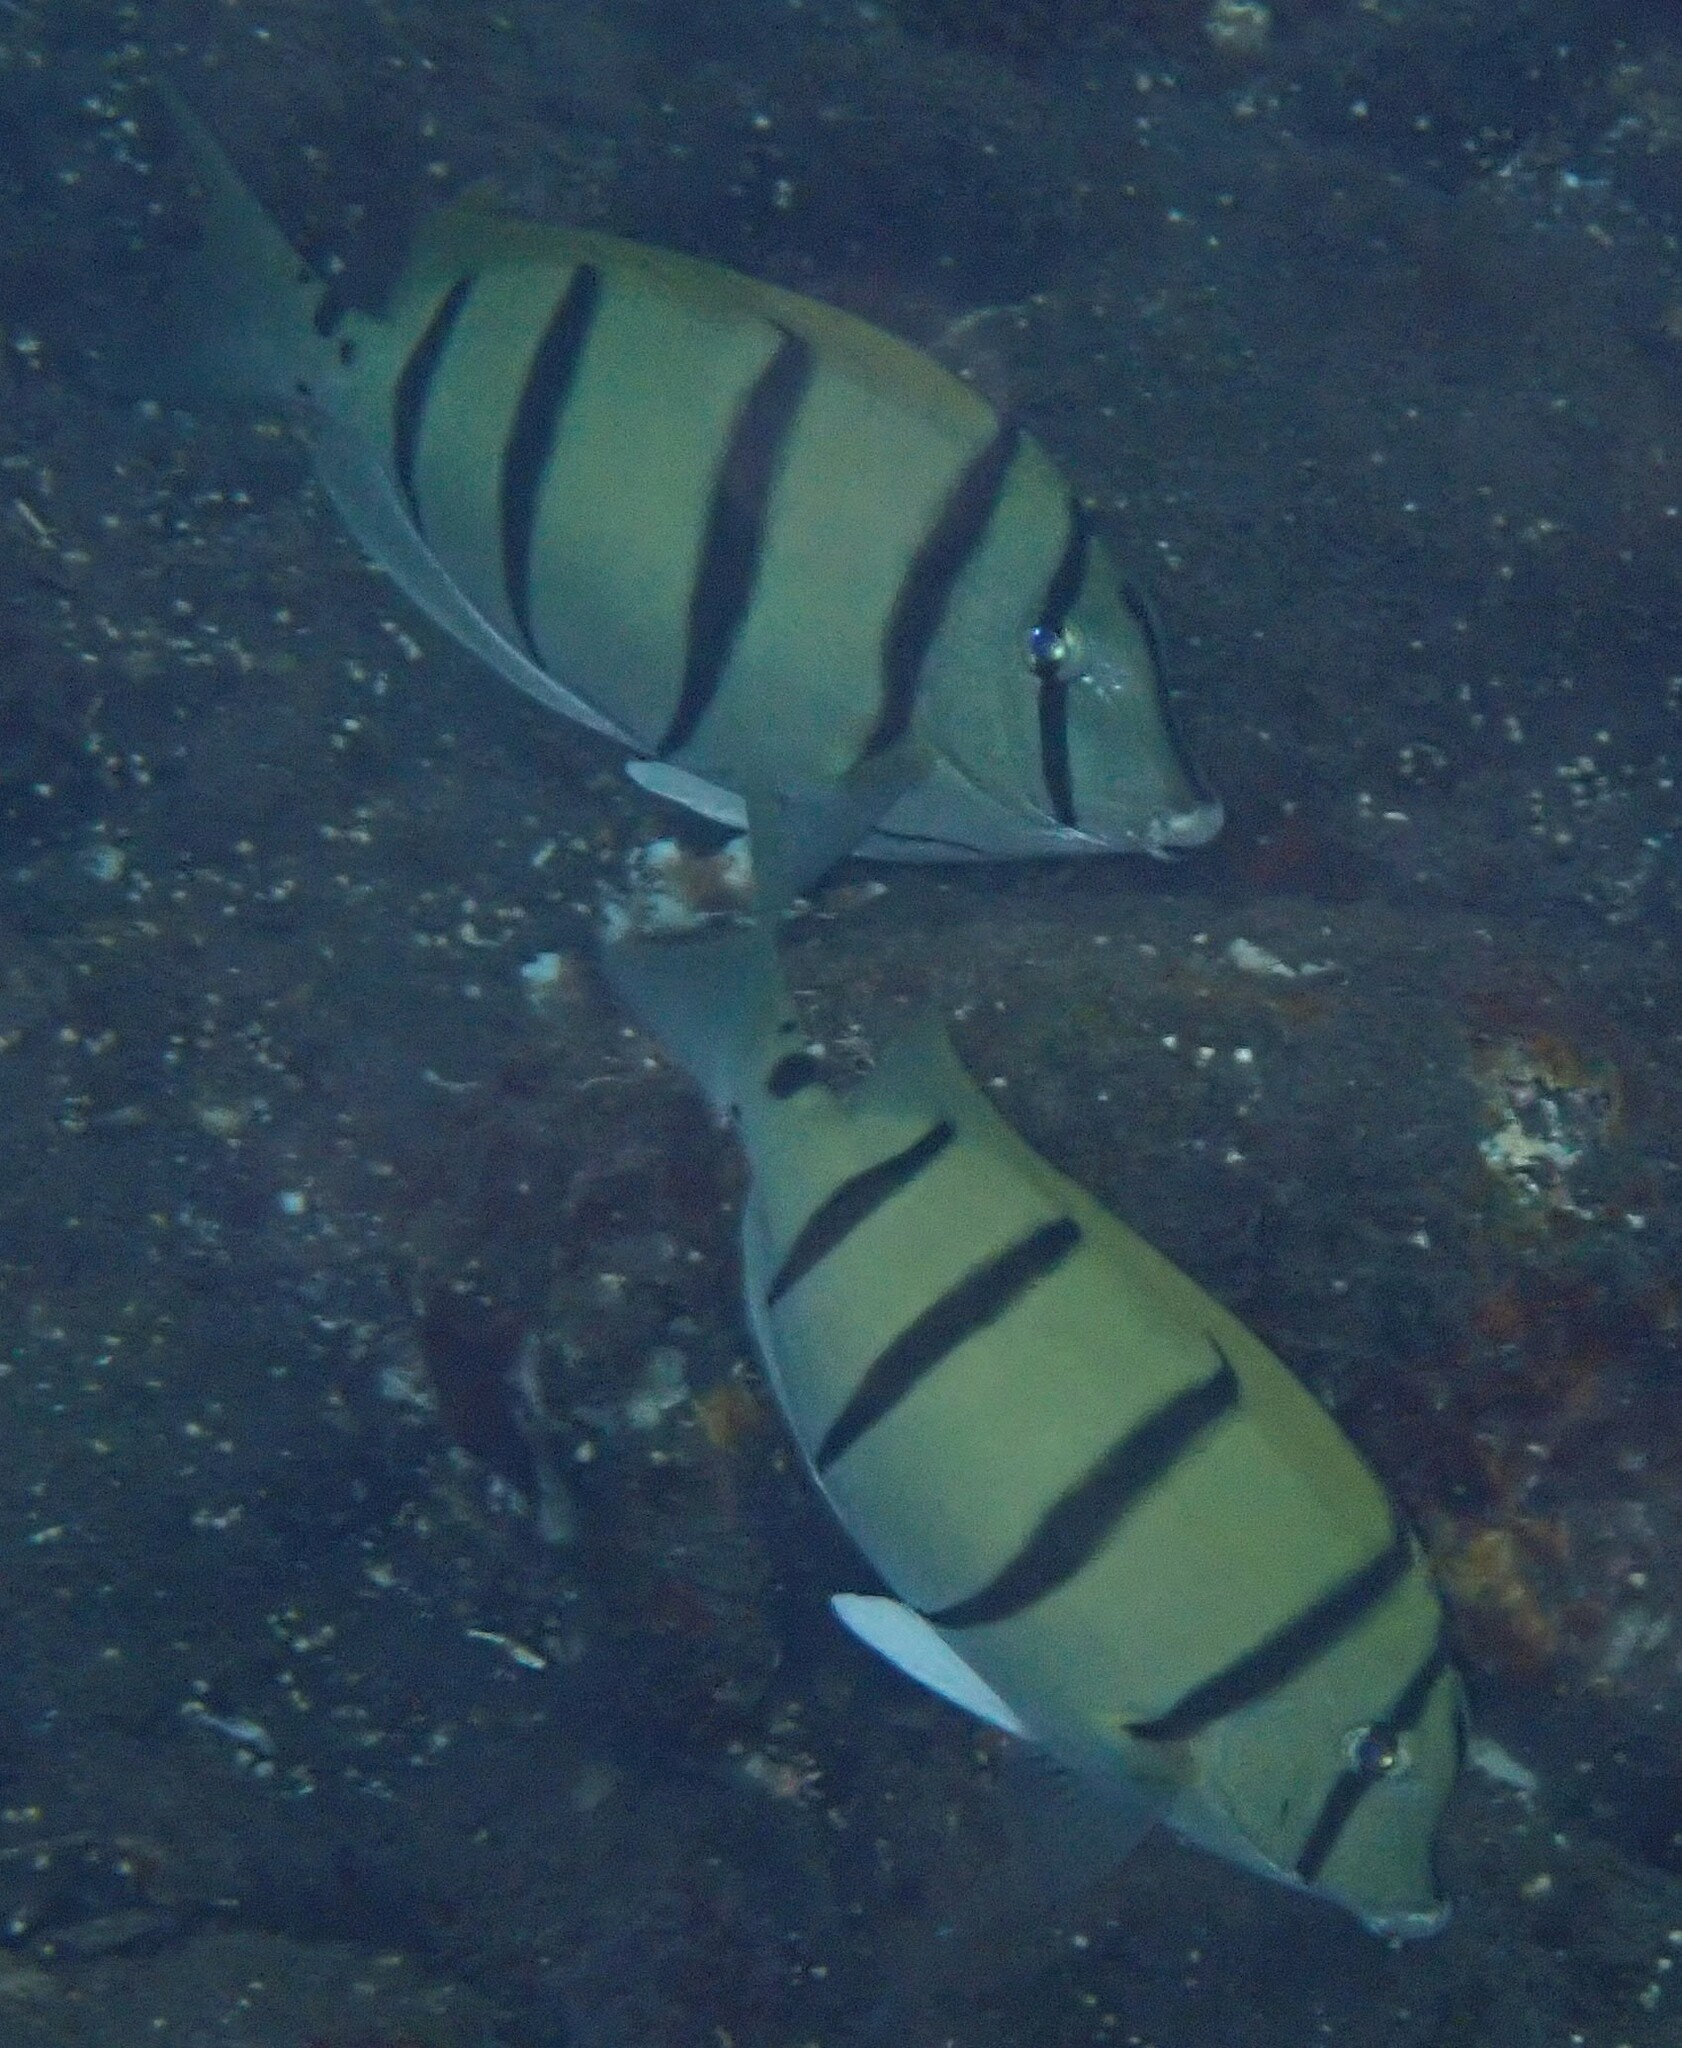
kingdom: Animalia
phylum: Chordata
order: Perciformes
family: Acanthuridae
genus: Acanthurus
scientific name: Acanthurus triostegus
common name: Convict surgeonfish
